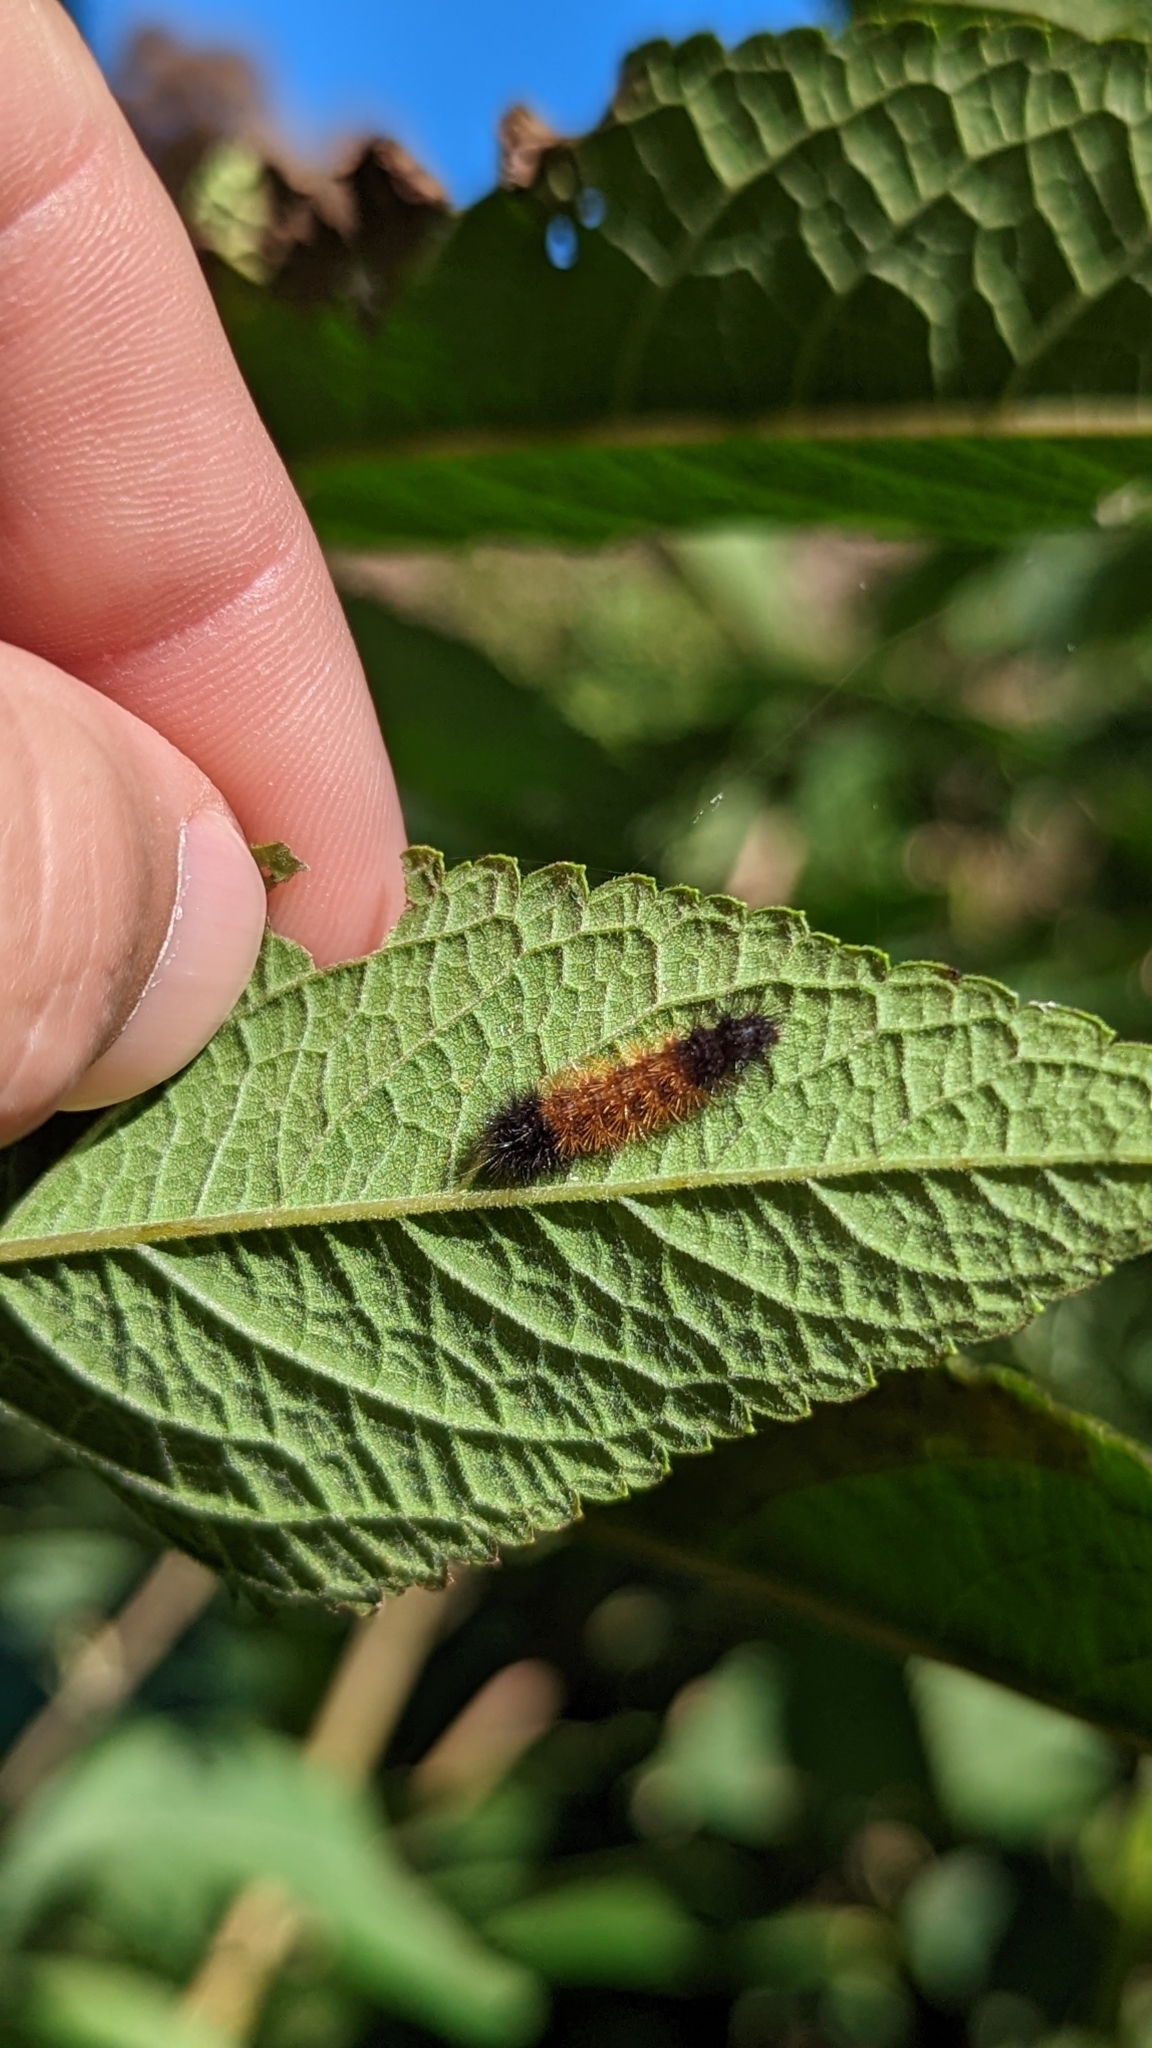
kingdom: Animalia
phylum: Arthropoda
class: Insecta
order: Lepidoptera
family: Erebidae
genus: Pyrrharctia
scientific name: Pyrrharctia isabella
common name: Isabella tiger moth
